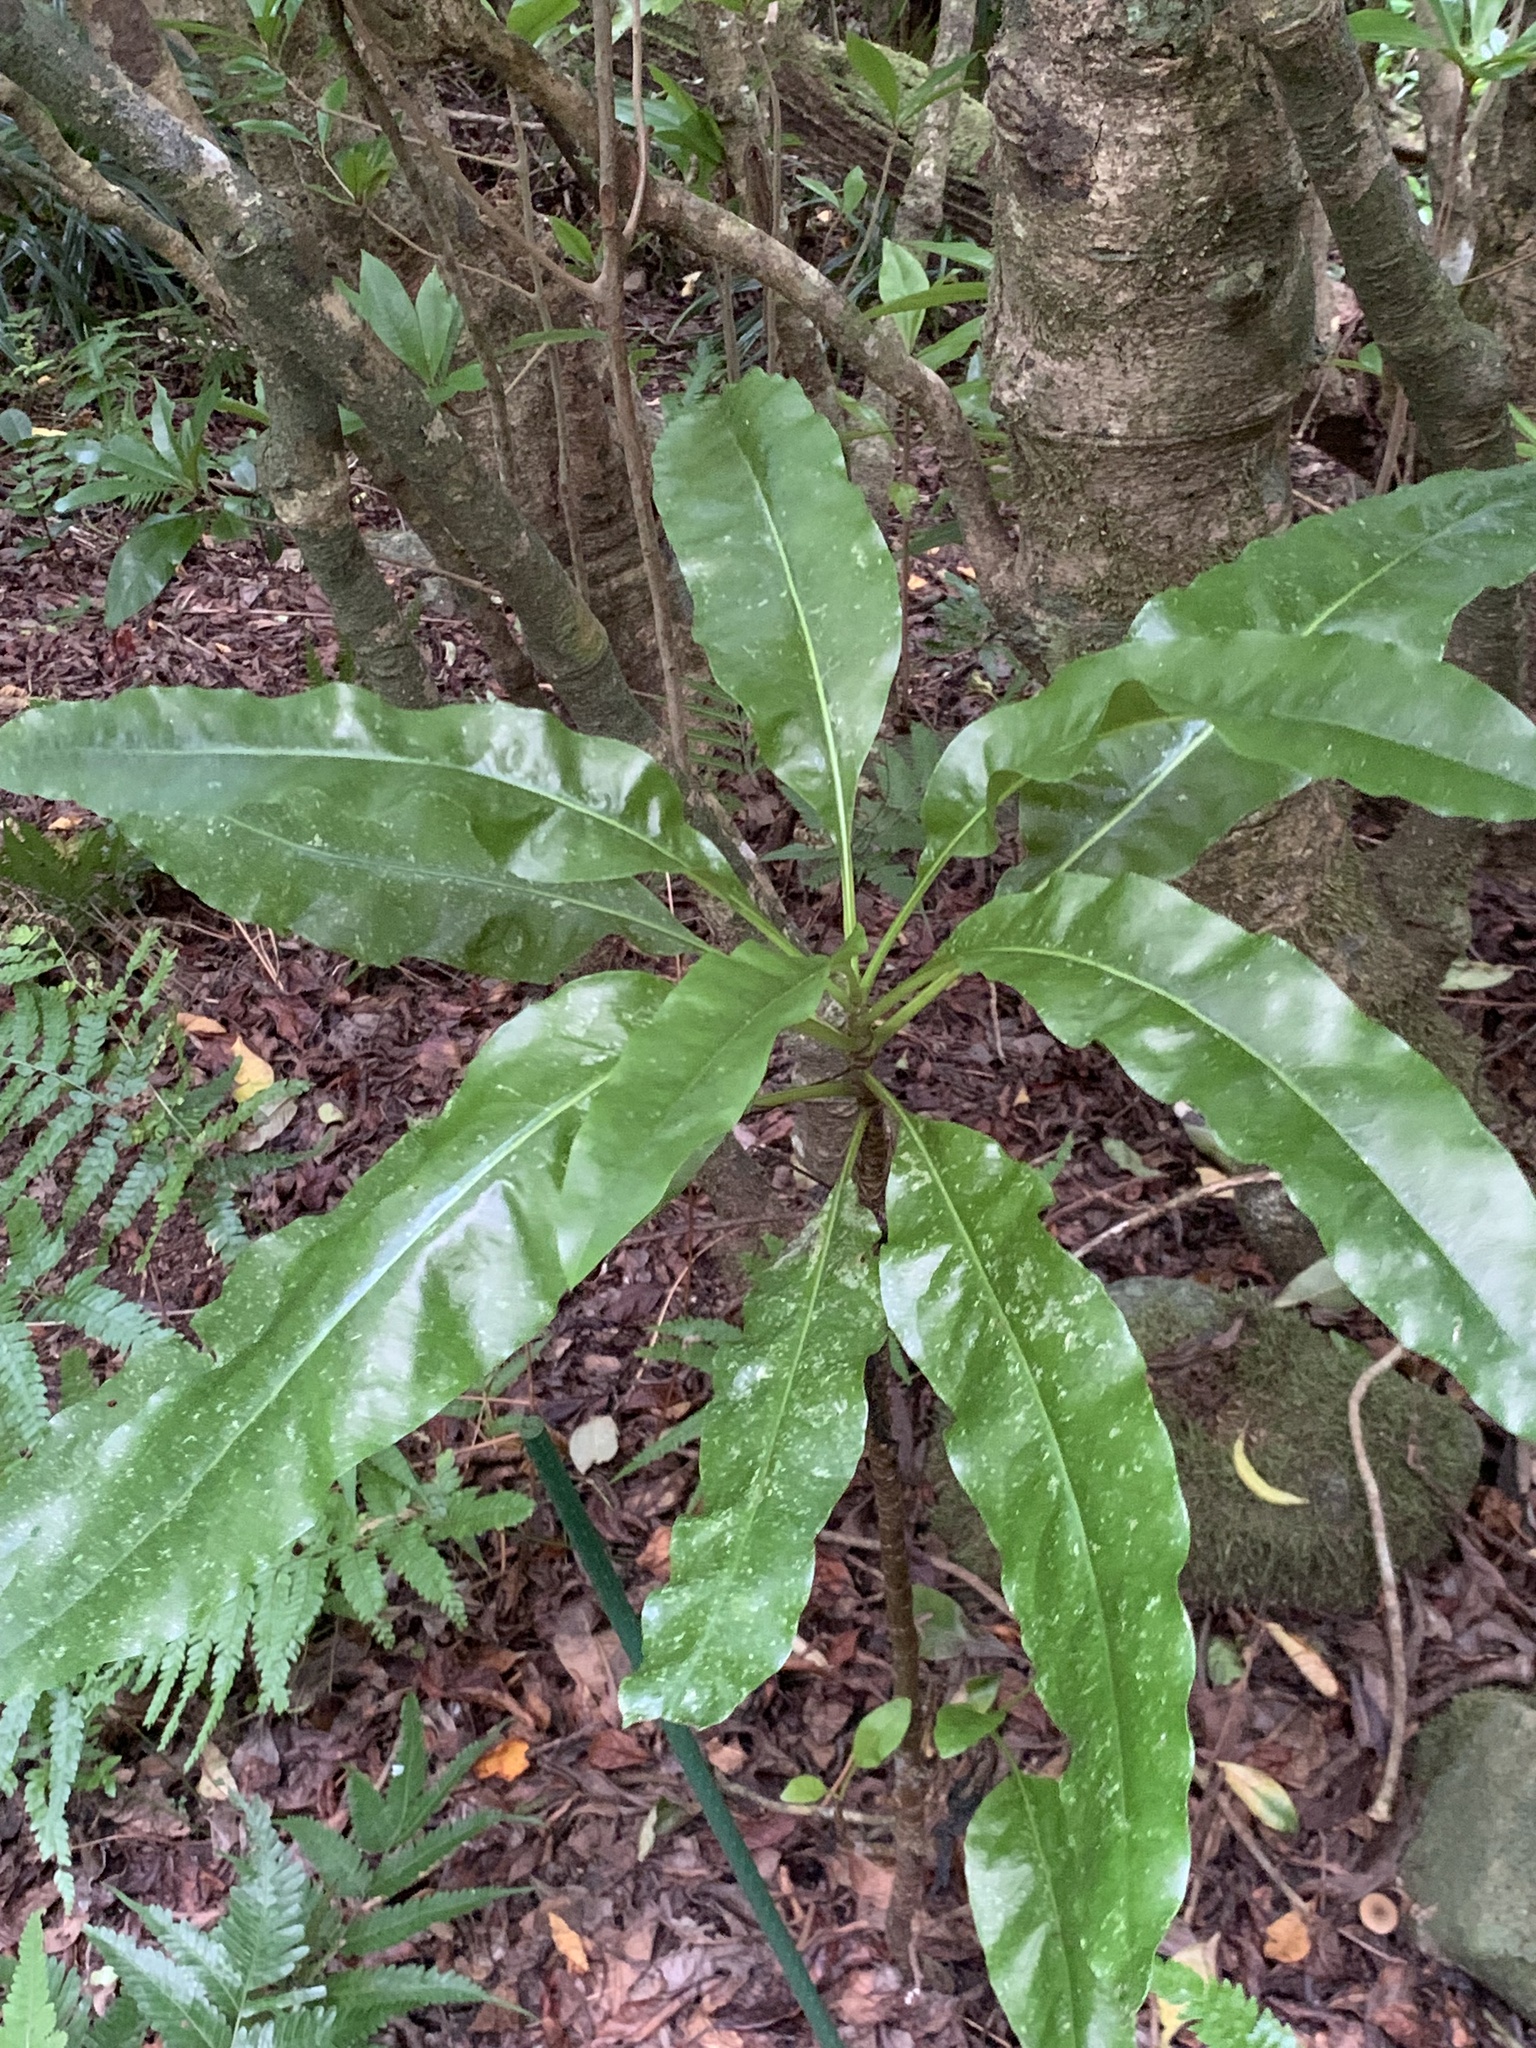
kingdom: Plantae
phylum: Tracheophyta
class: Magnoliopsida
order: Asterales
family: Asteraceae
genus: Crepidiastrum
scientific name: Crepidiastrum ameristophyllum
